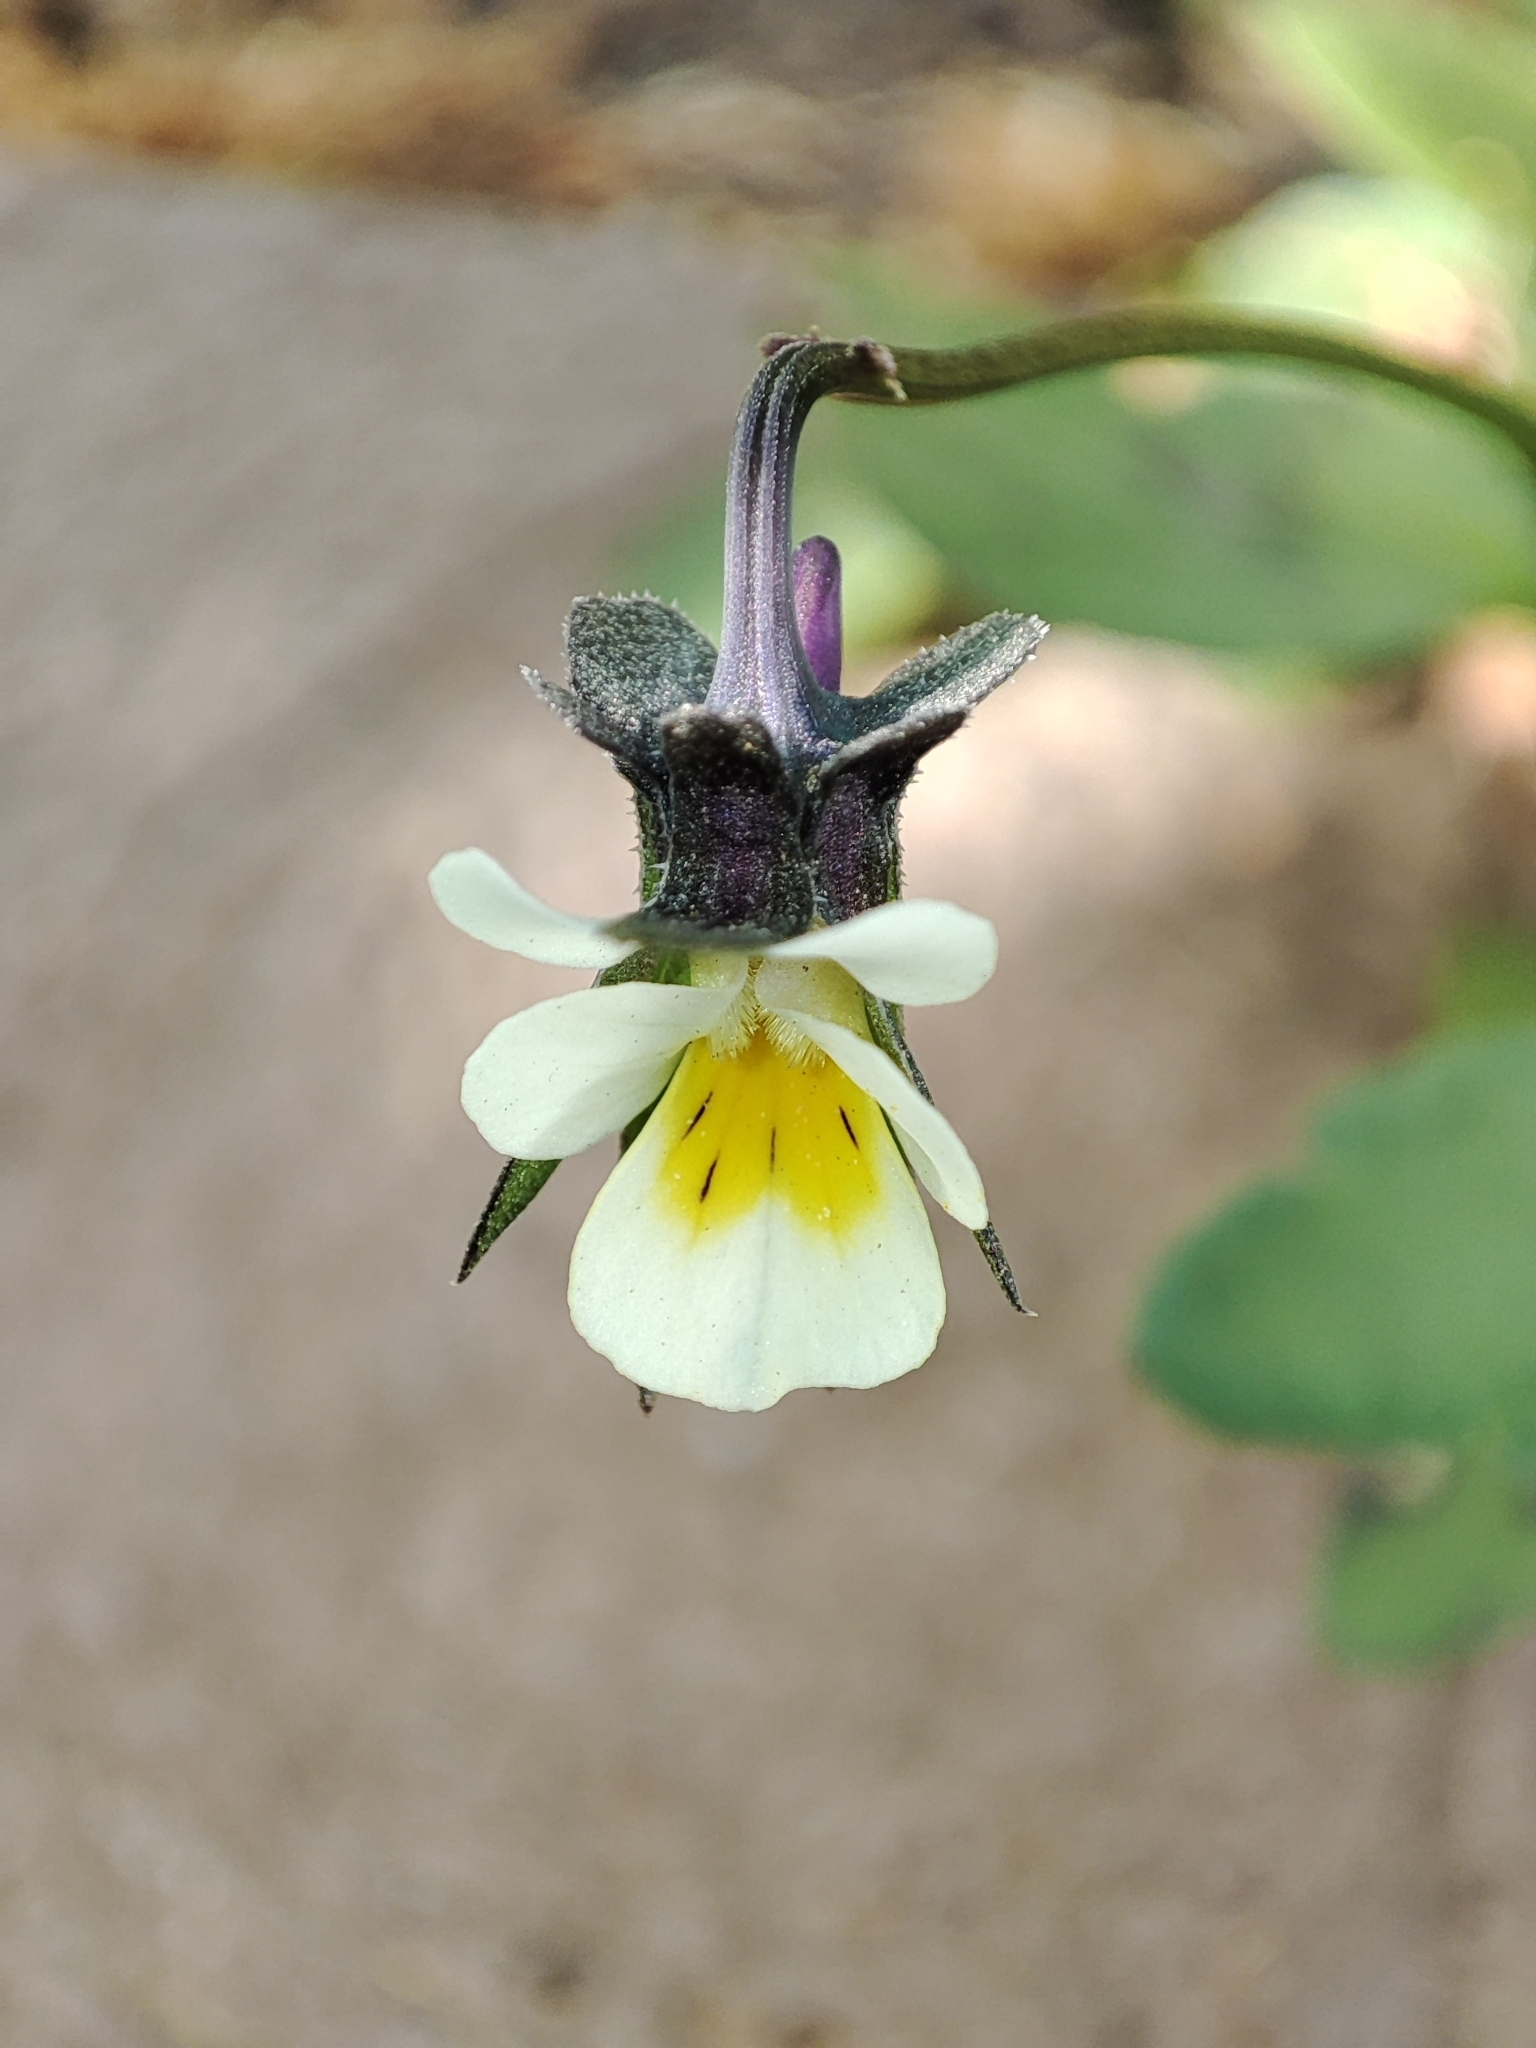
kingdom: Plantae
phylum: Tracheophyta
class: Magnoliopsida
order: Malpighiales
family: Violaceae
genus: Viola
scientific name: Viola arvensis
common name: Field pansy
